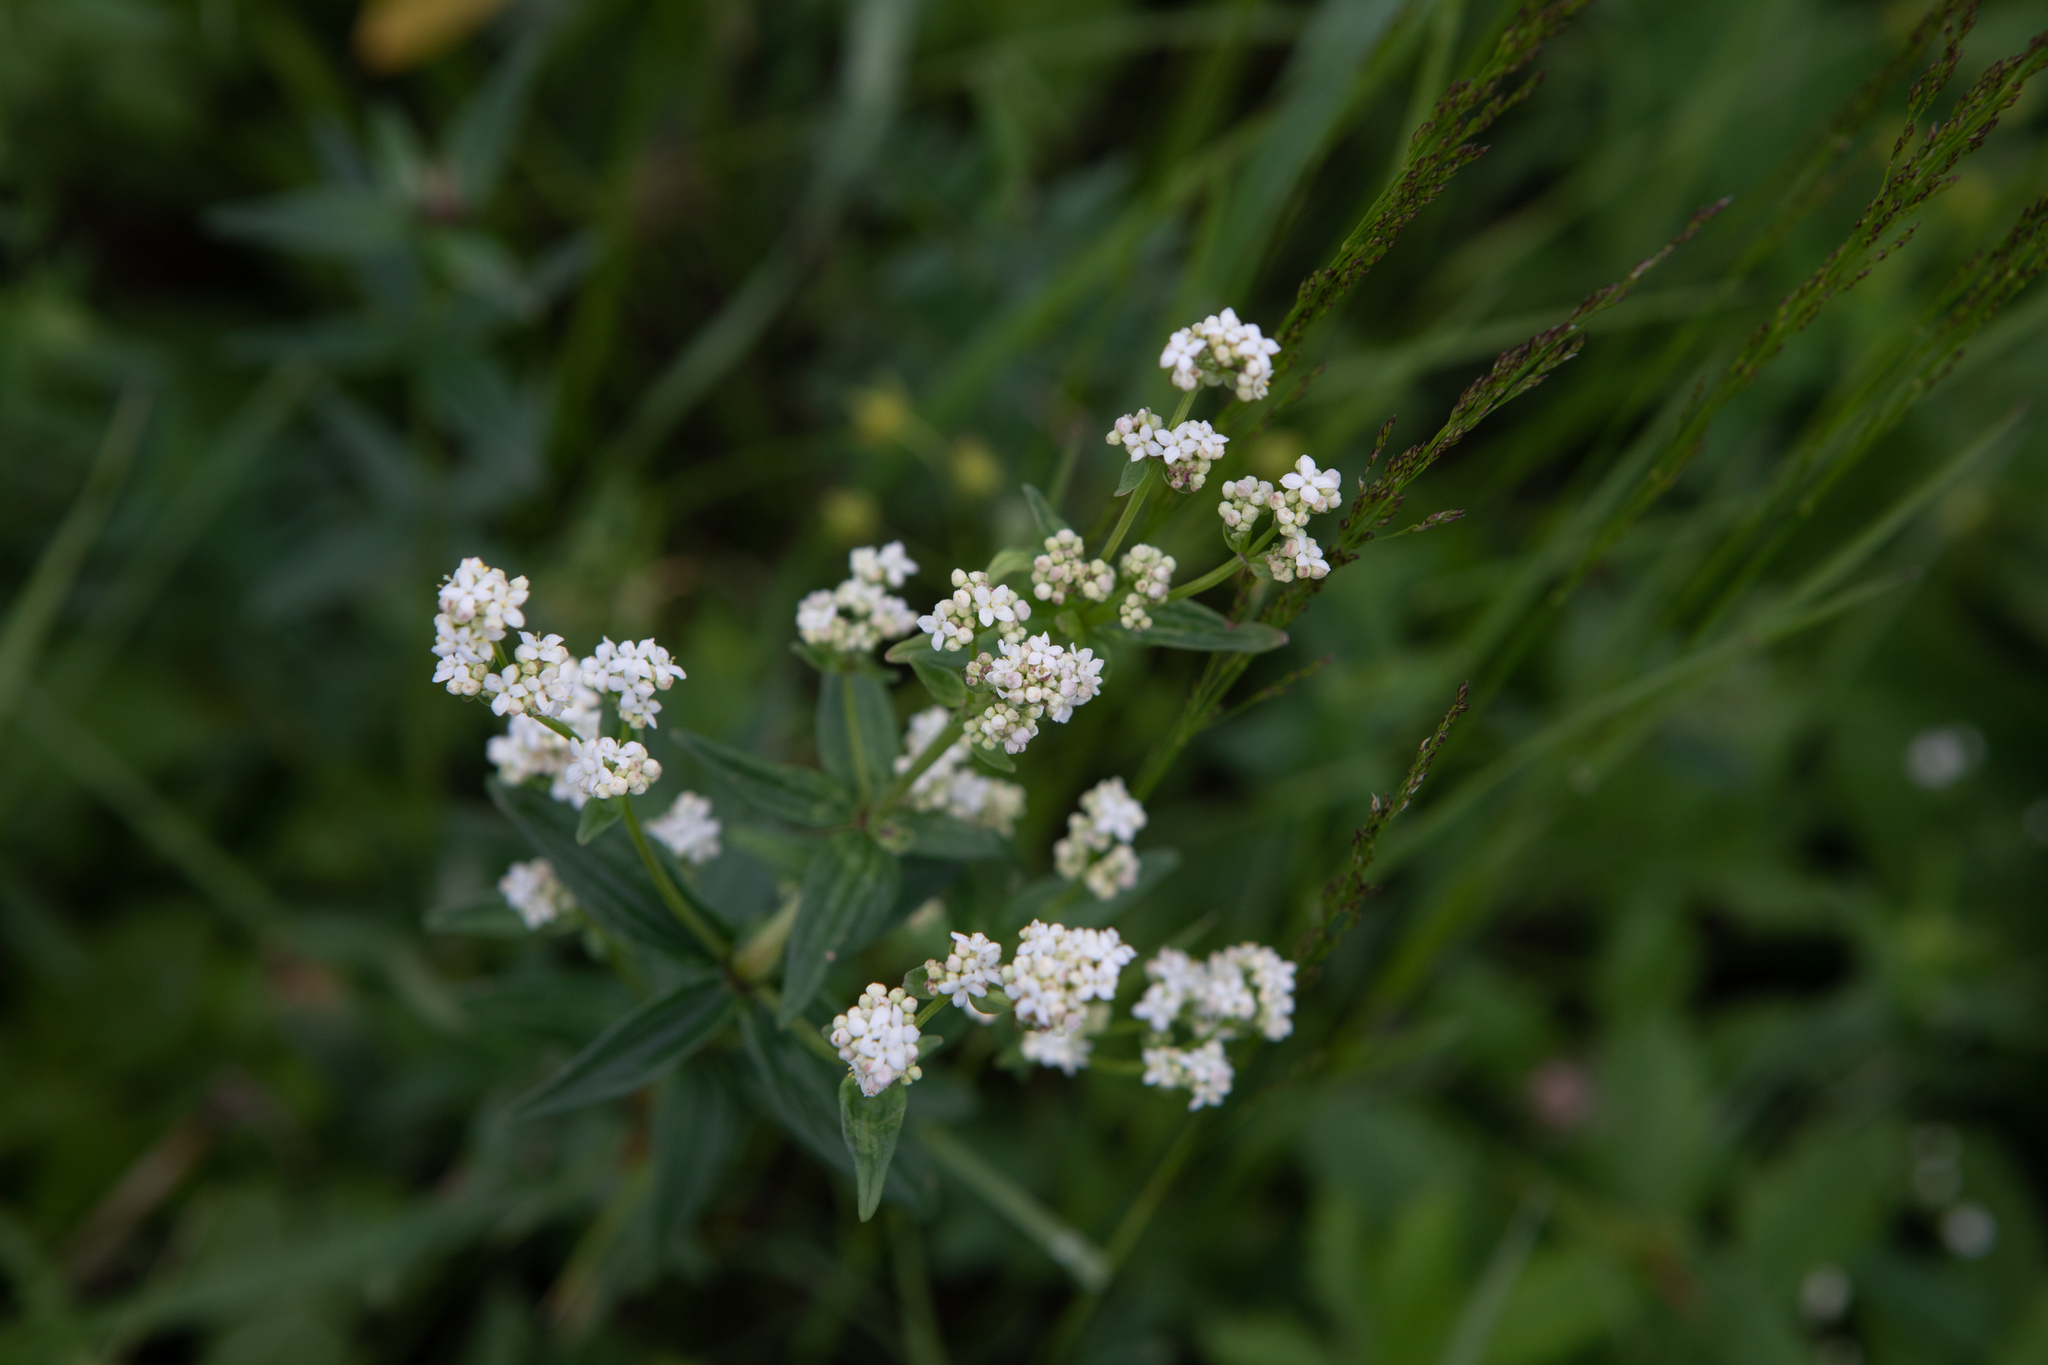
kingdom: Plantae
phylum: Tracheophyta
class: Magnoliopsida
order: Gentianales
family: Rubiaceae
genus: Galium
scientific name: Galium boreale
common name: Northern bedstraw
